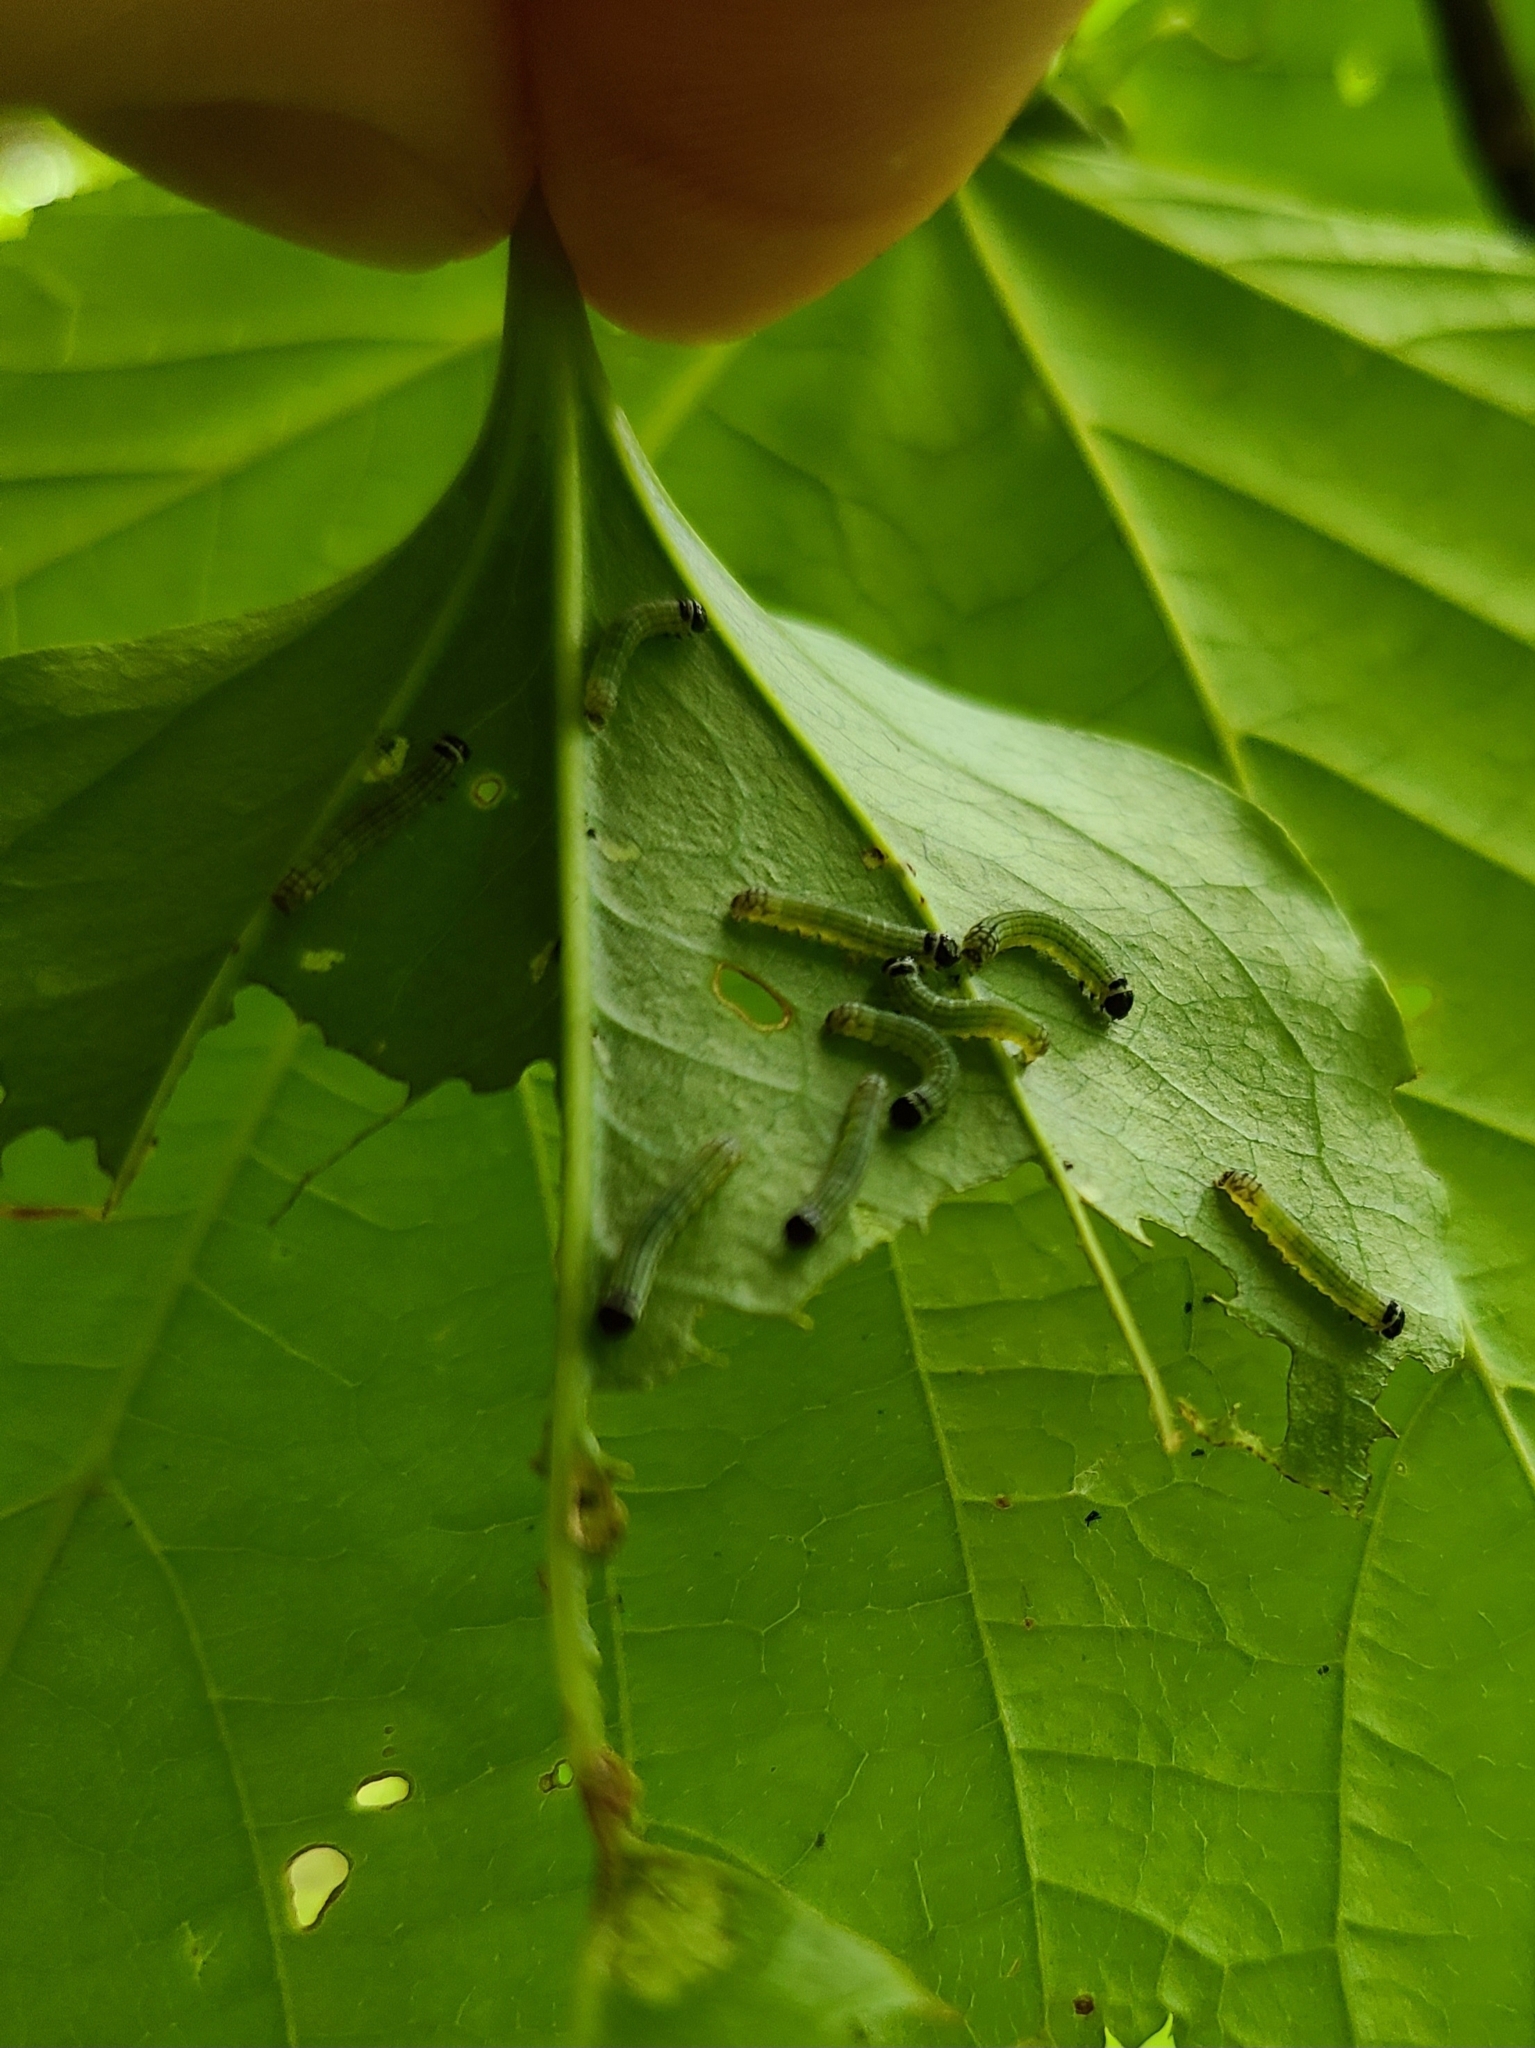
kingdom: Animalia
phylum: Arthropoda
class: Insecta
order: Lepidoptera
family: Noctuidae
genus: Phosphila
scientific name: Phosphila turbulenta
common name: Turbulent phosphila moth
